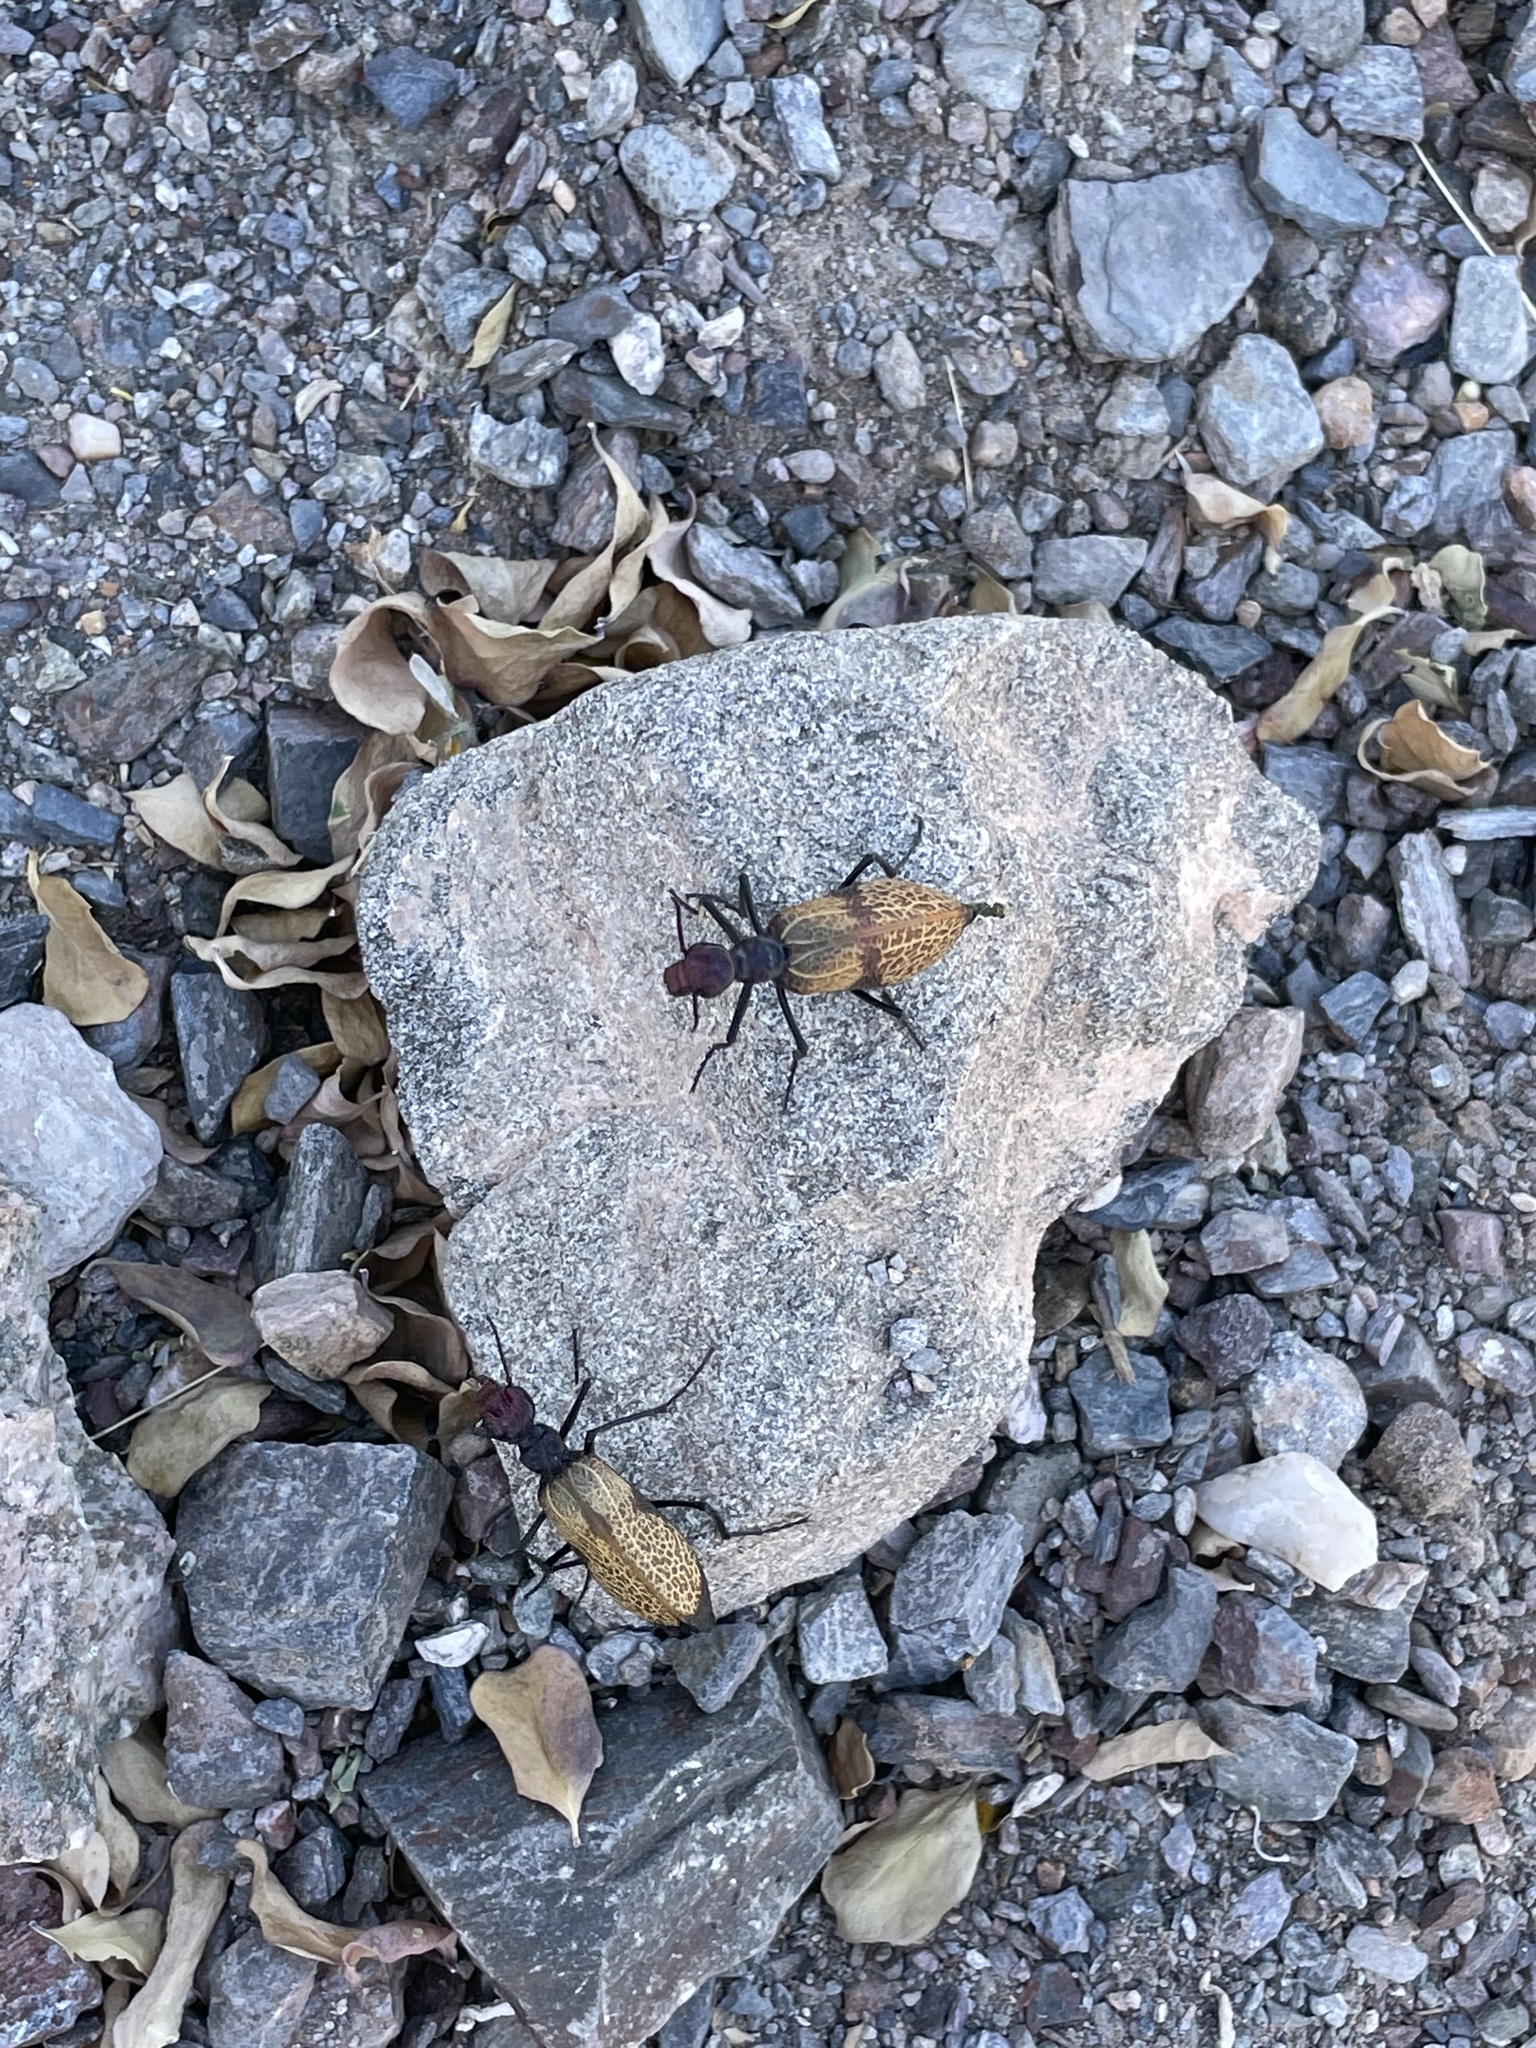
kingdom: Animalia
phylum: Arthropoda
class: Insecta
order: Coleoptera
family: Meloidae
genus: Tegrodera
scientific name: Tegrodera erosa
